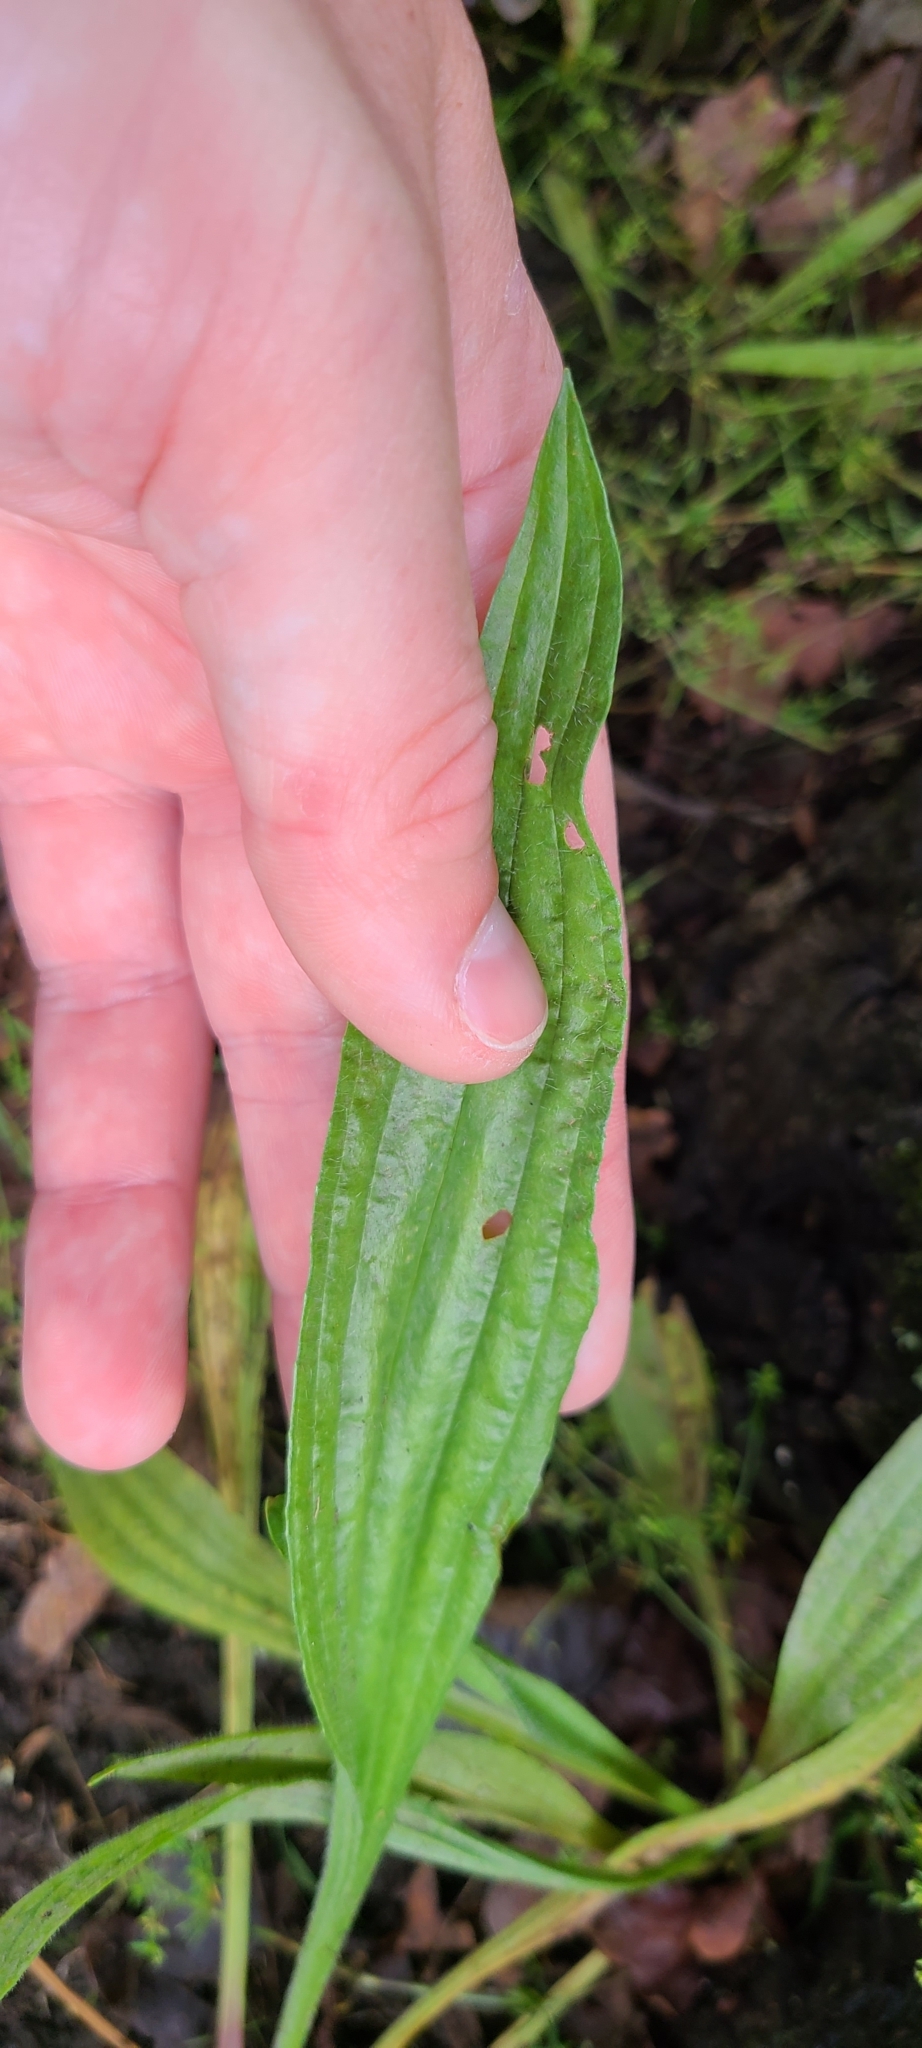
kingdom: Plantae
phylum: Tracheophyta
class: Magnoliopsida
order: Lamiales
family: Plantaginaceae
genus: Plantago
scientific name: Plantago lanceolata
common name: Ribwort plantain
